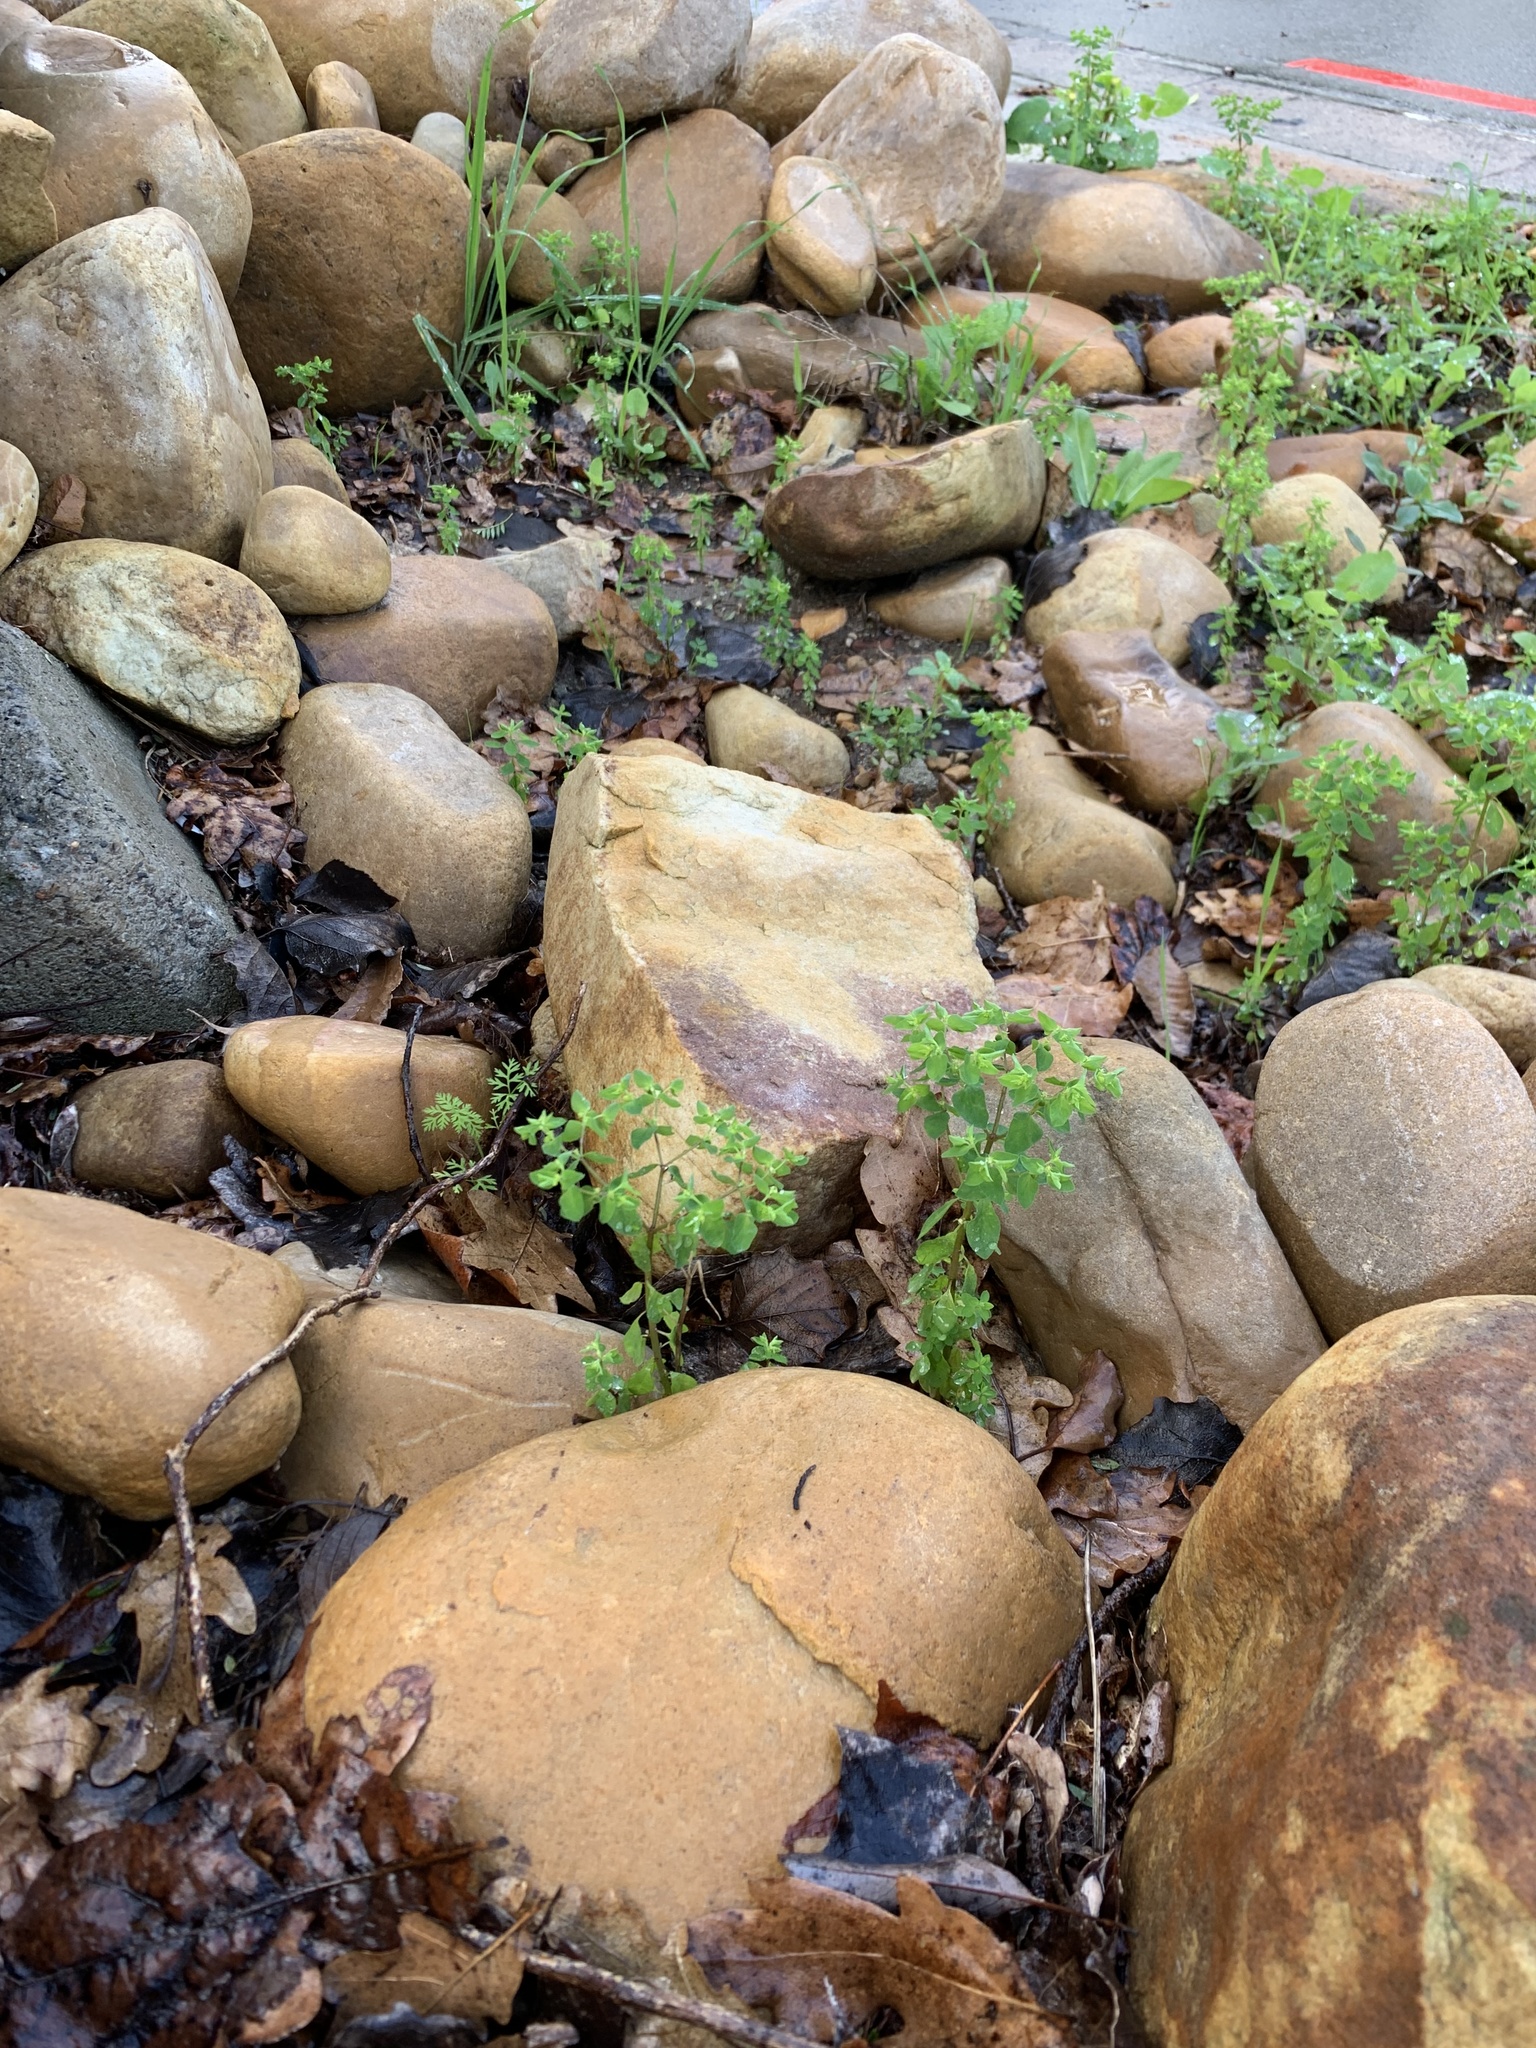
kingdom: Plantae
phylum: Tracheophyta
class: Magnoliopsida
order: Malpighiales
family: Euphorbiaceae
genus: Euphorbia
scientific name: Euphorbia peplus
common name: Petty spurge
